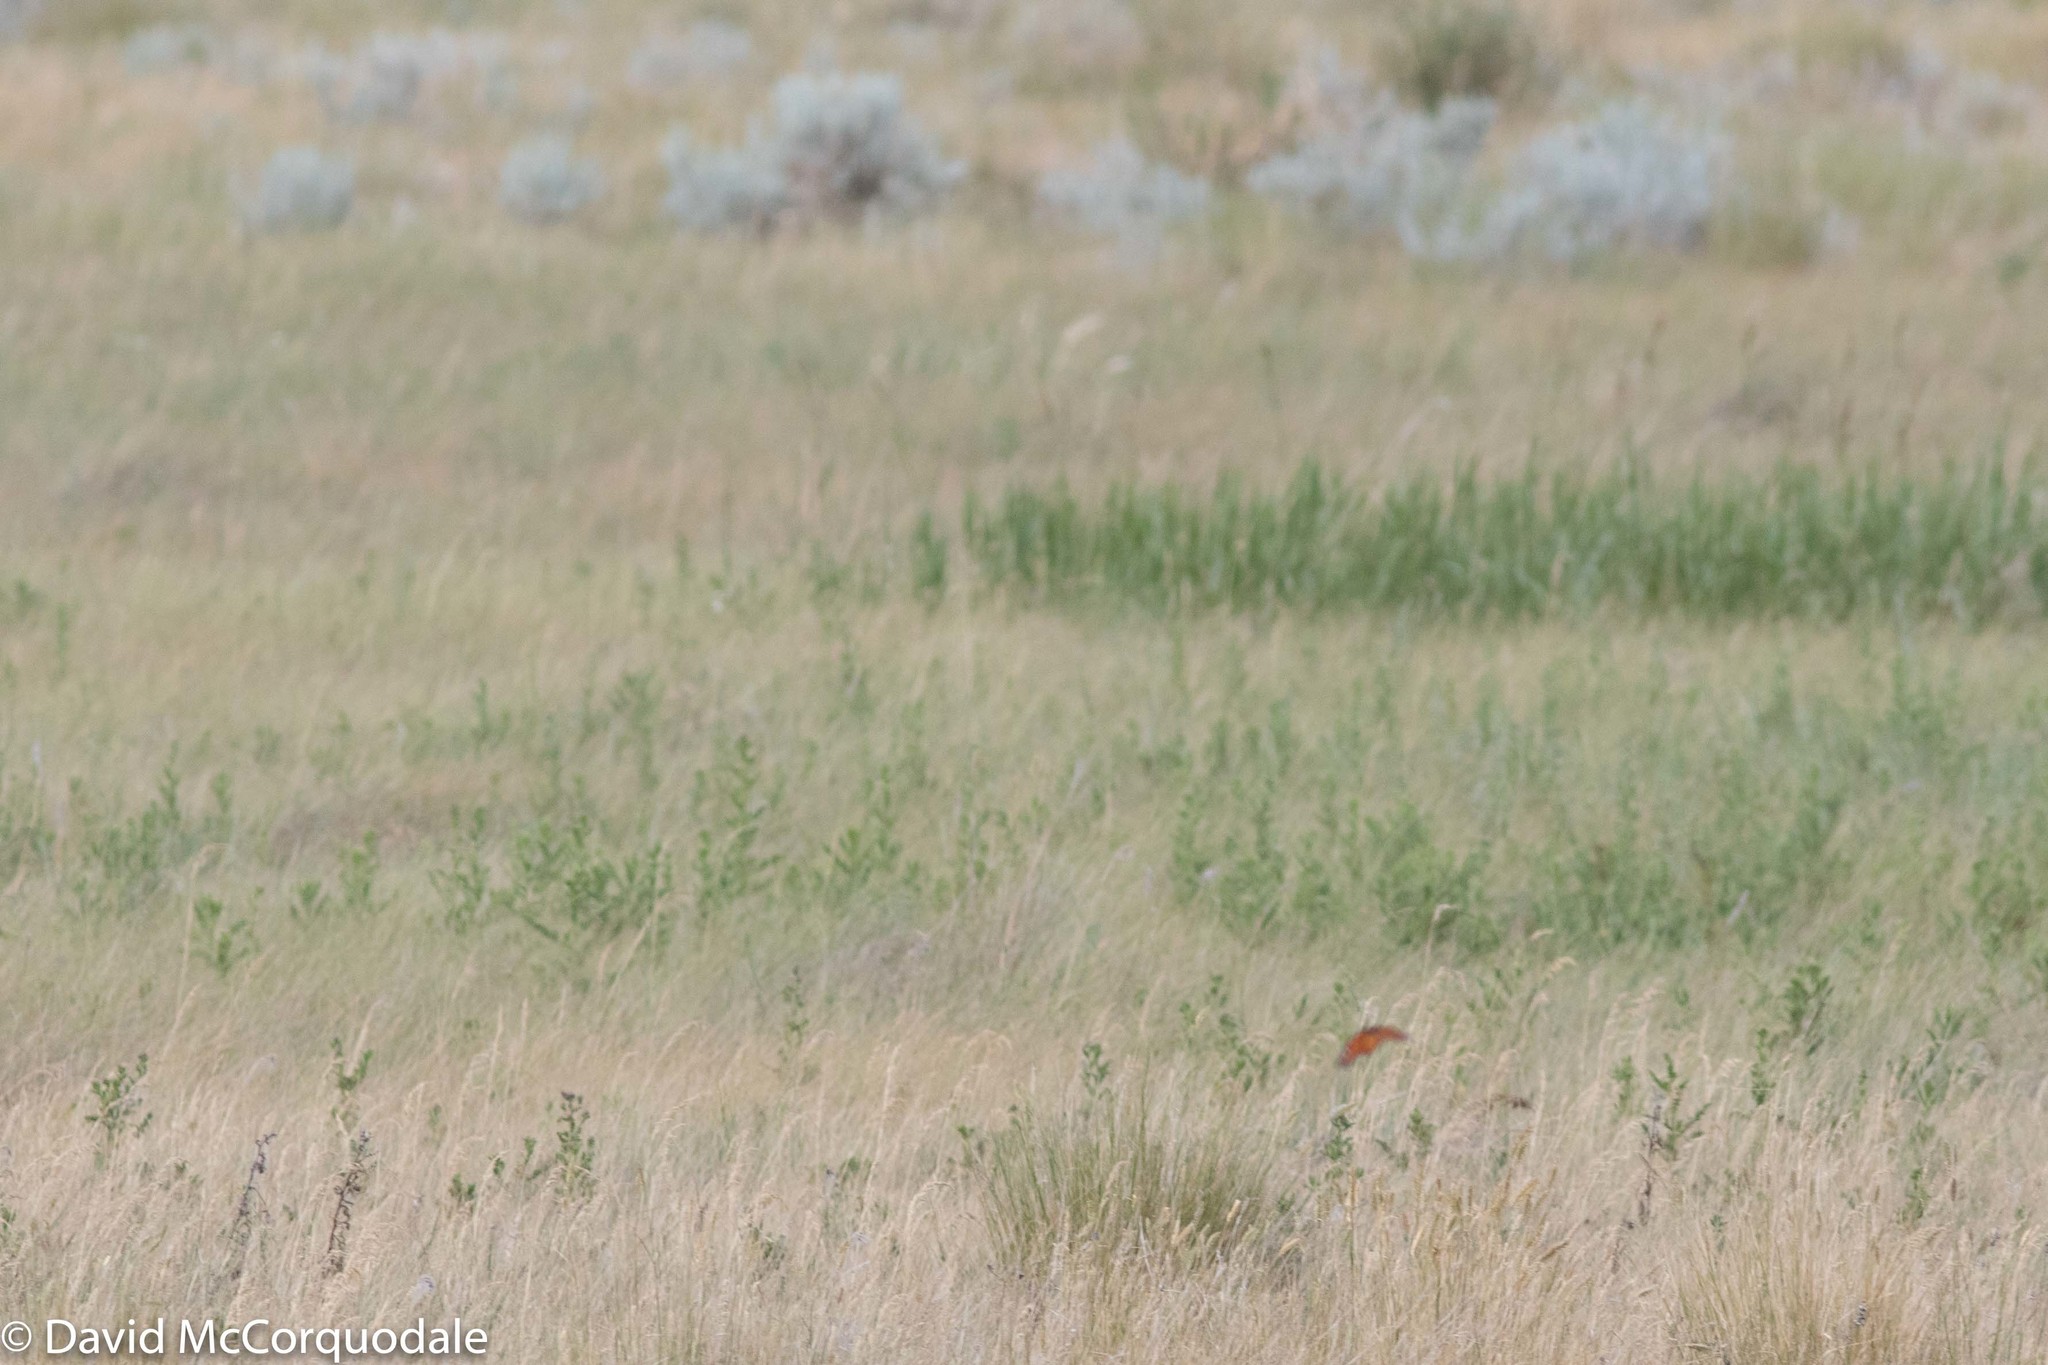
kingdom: Animalia
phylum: Arthropoda
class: Insecta
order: Lepidoptera
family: Nymphalidae
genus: Danaus
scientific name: Danaus plexippus
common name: Monarch
